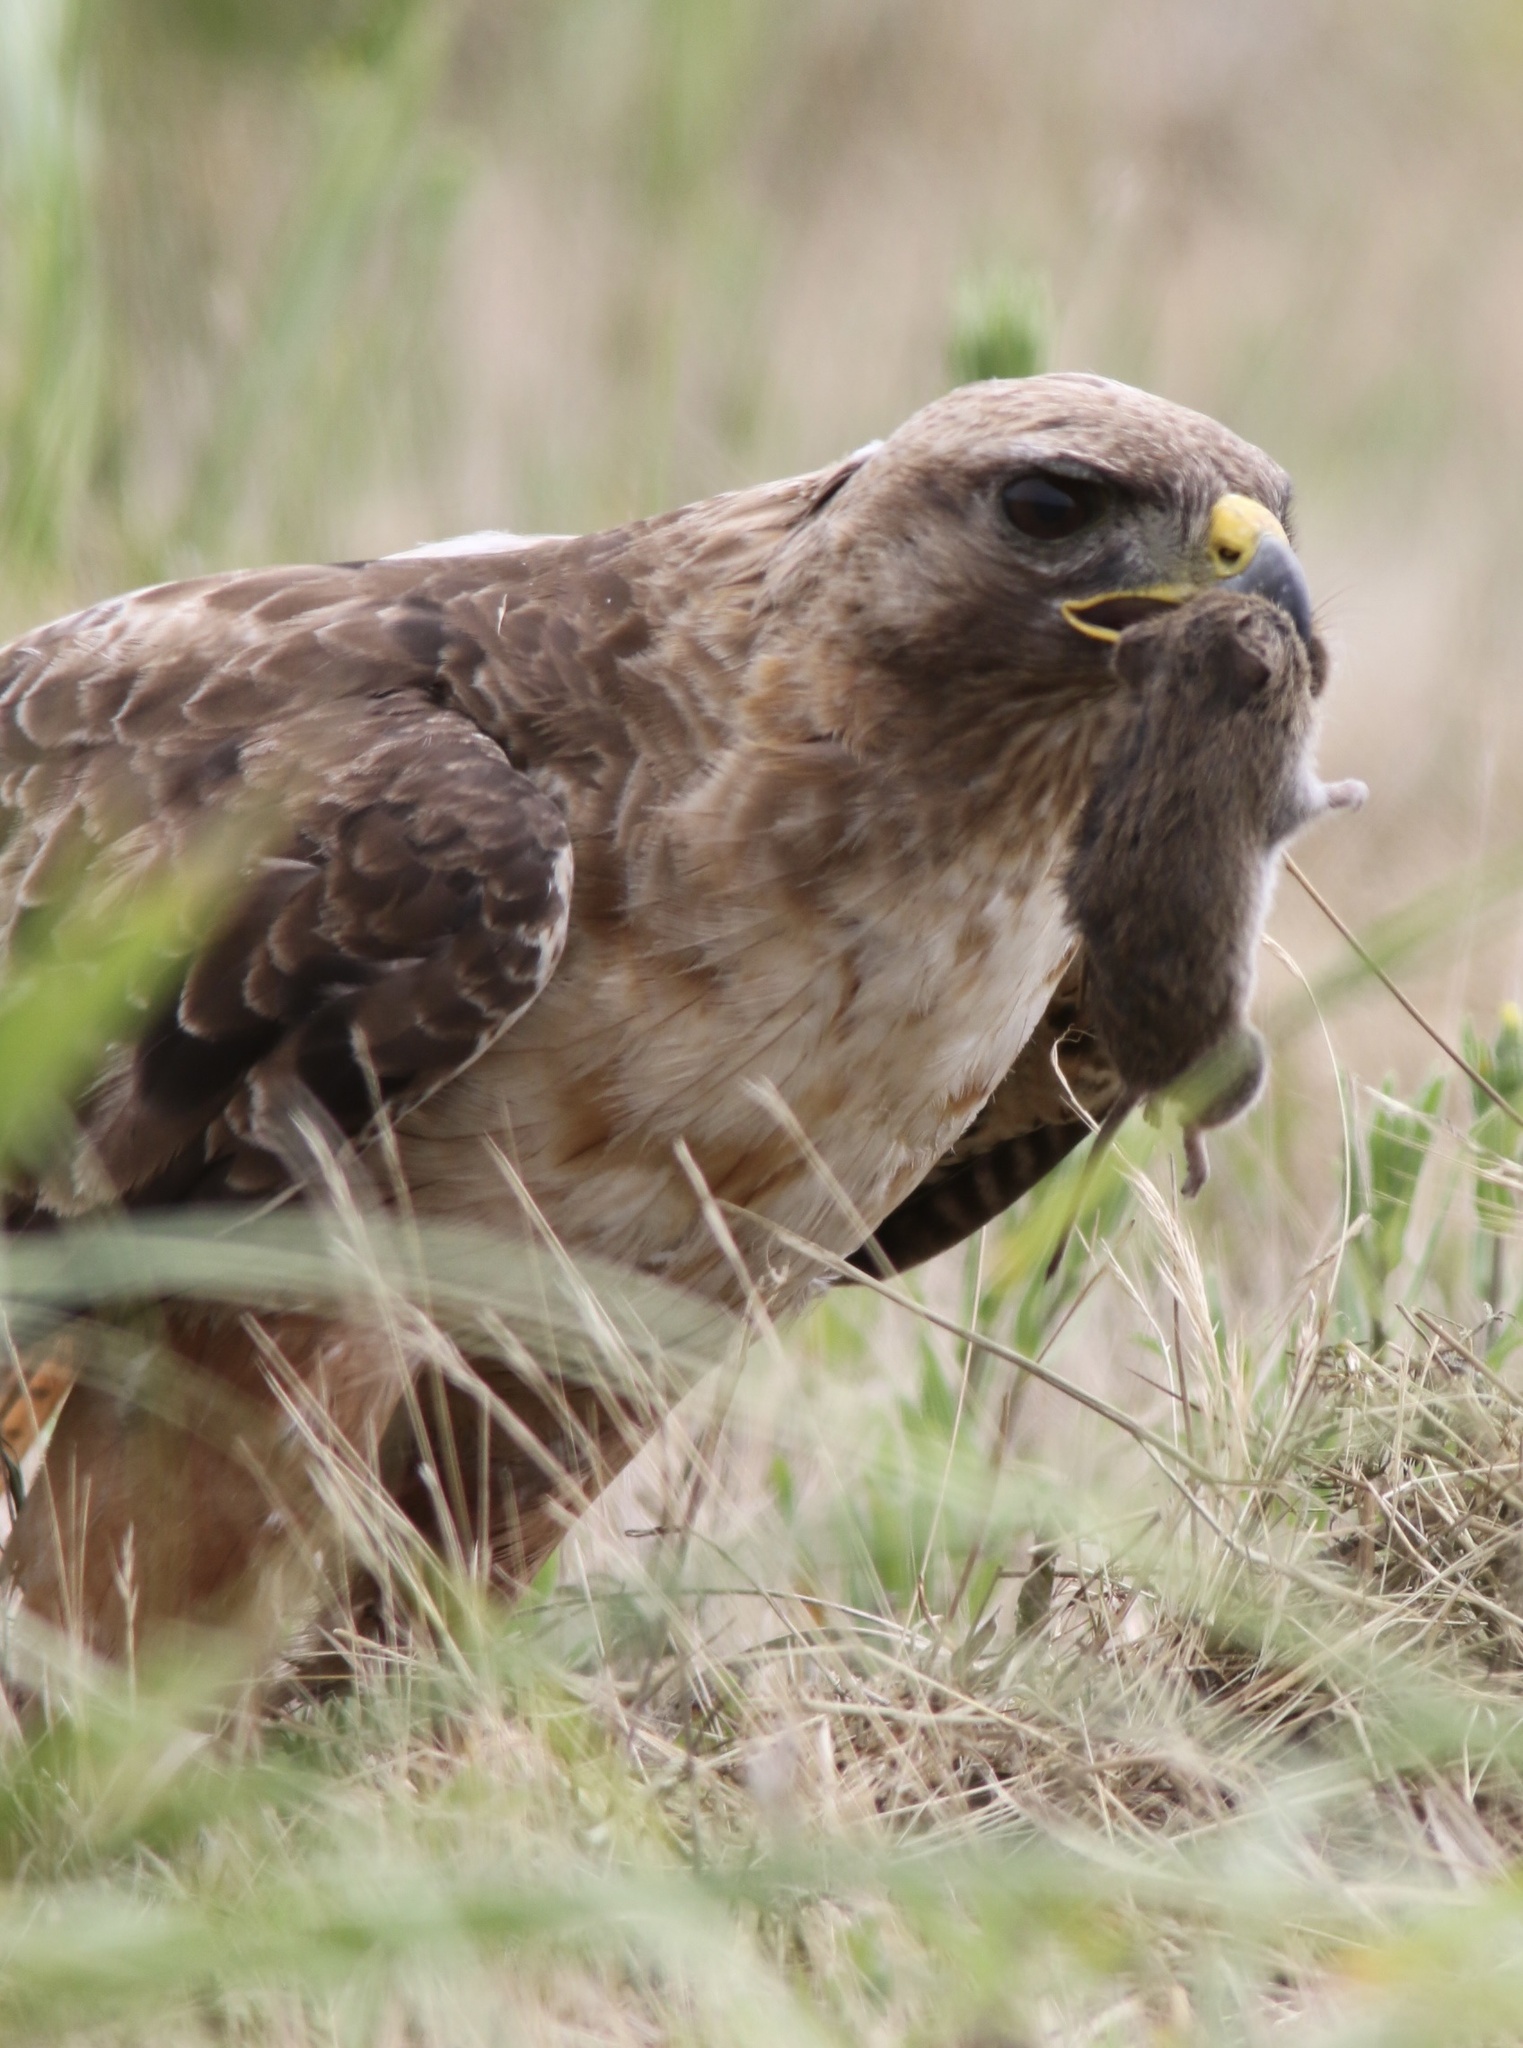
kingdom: Animalia
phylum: Chordata
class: Aves
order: Accipitriformes
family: Accipitridae
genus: Buteo
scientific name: Buteo jamaicensis
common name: Red-tailed hawk
